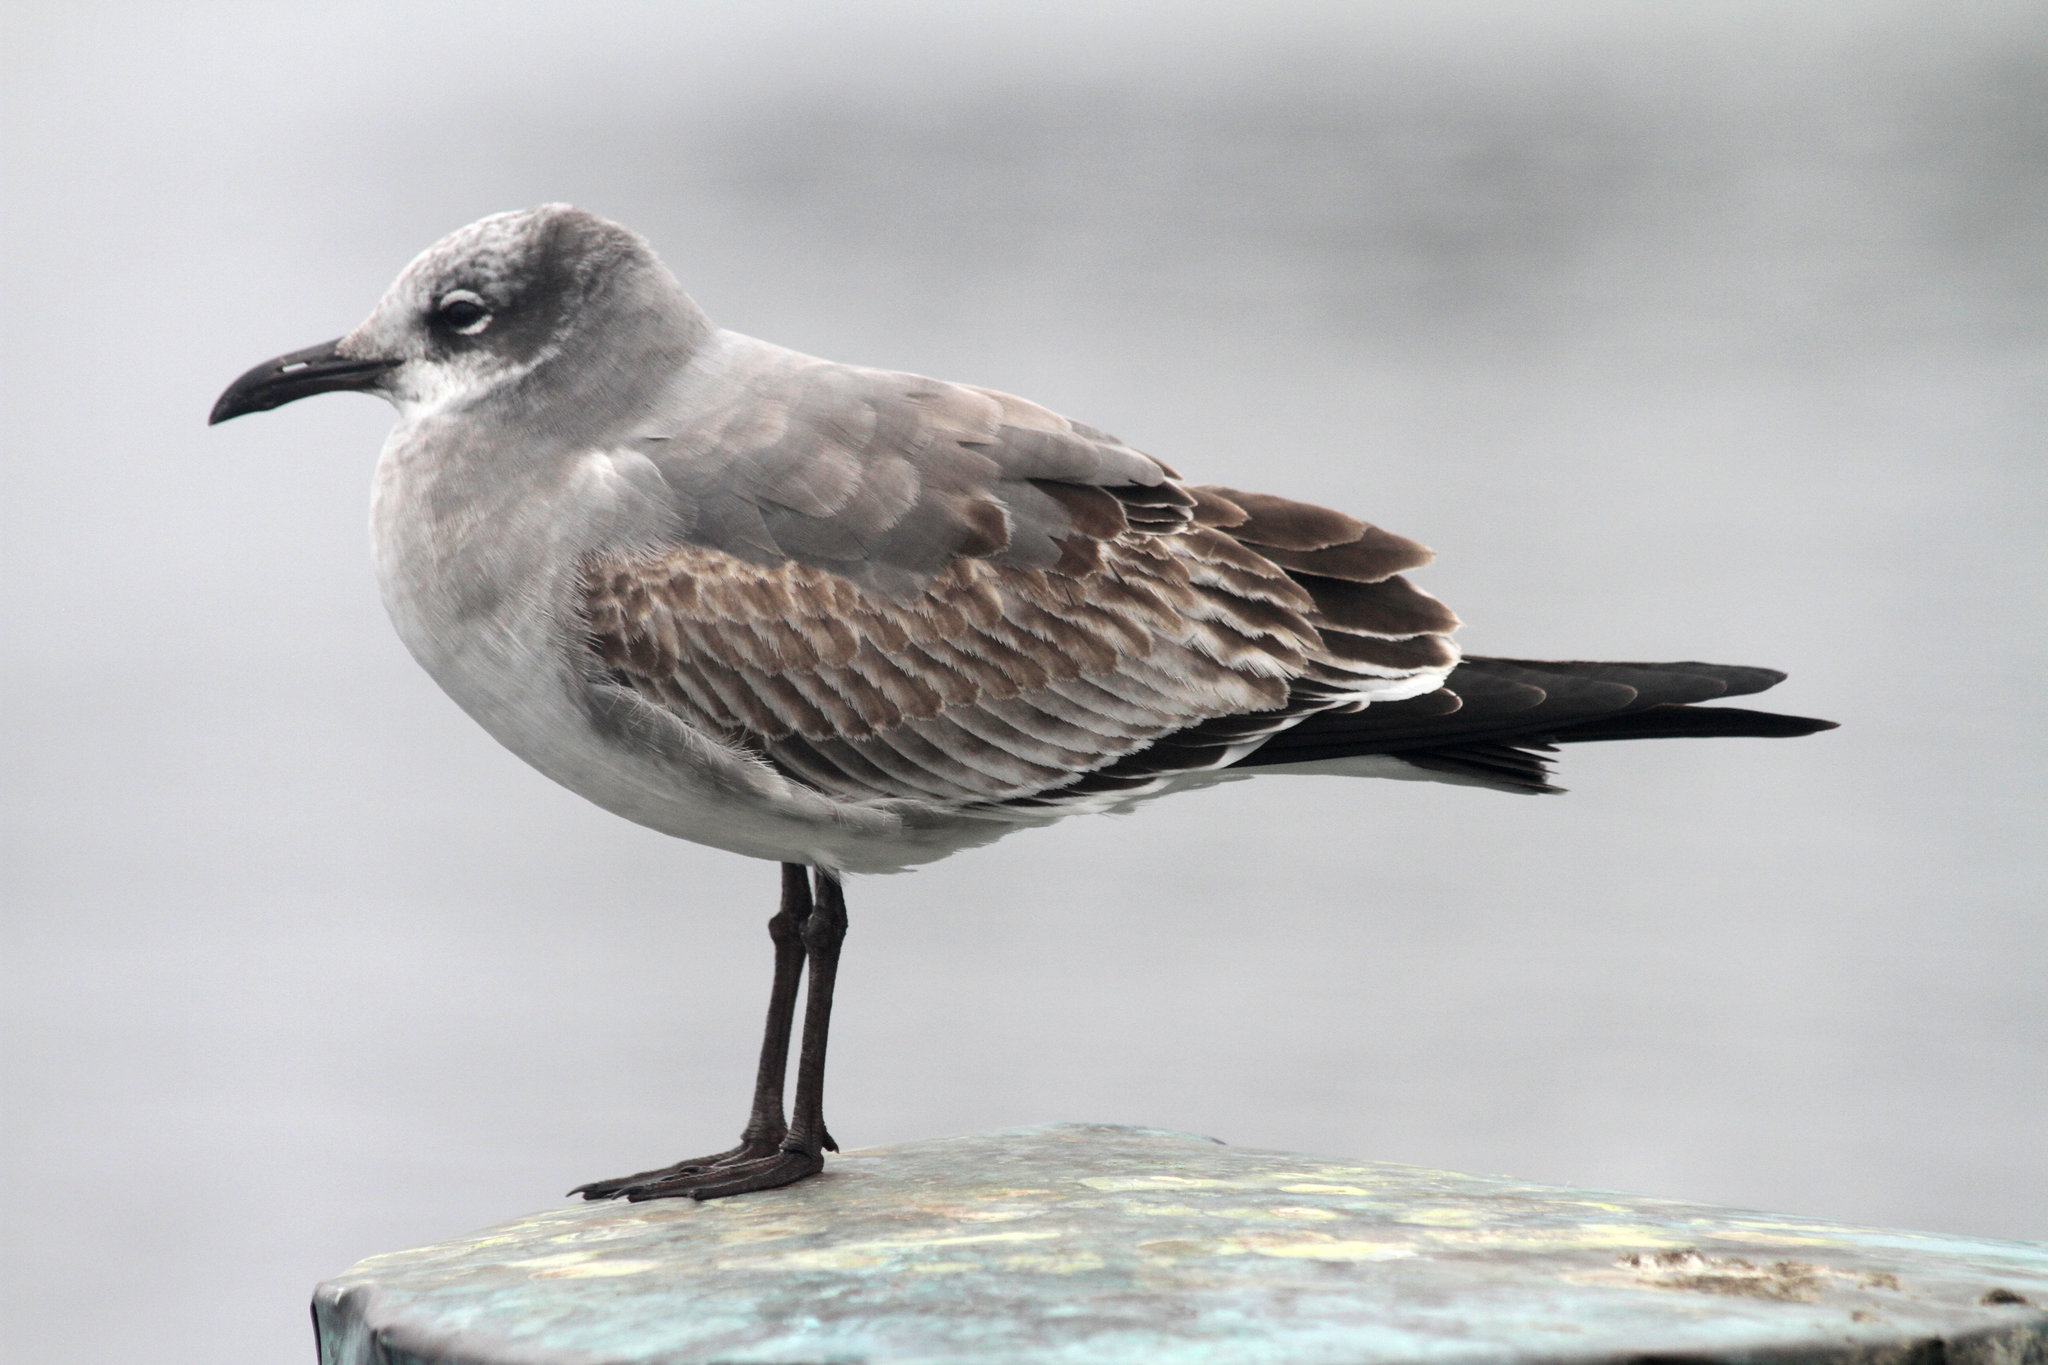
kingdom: Animalia
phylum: Chordata
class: Aves
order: Charadriiformes
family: Laridae
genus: Leucophaeus
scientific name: Leucophaeus atricilla
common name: Laughing gull
